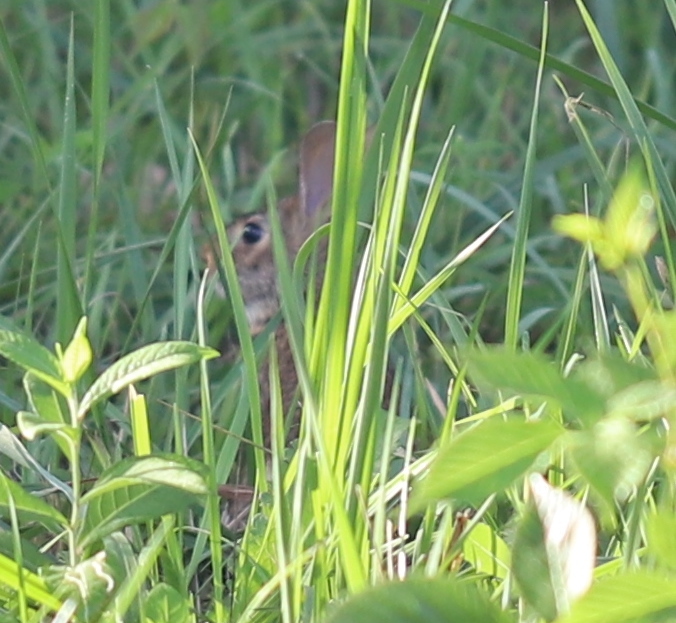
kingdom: Animalia
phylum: Chordata
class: Mammalia
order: Lagomorpha
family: Leporidae
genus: Sylvilagus
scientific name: Sylvilagus floridanus
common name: Eastern cottontail
